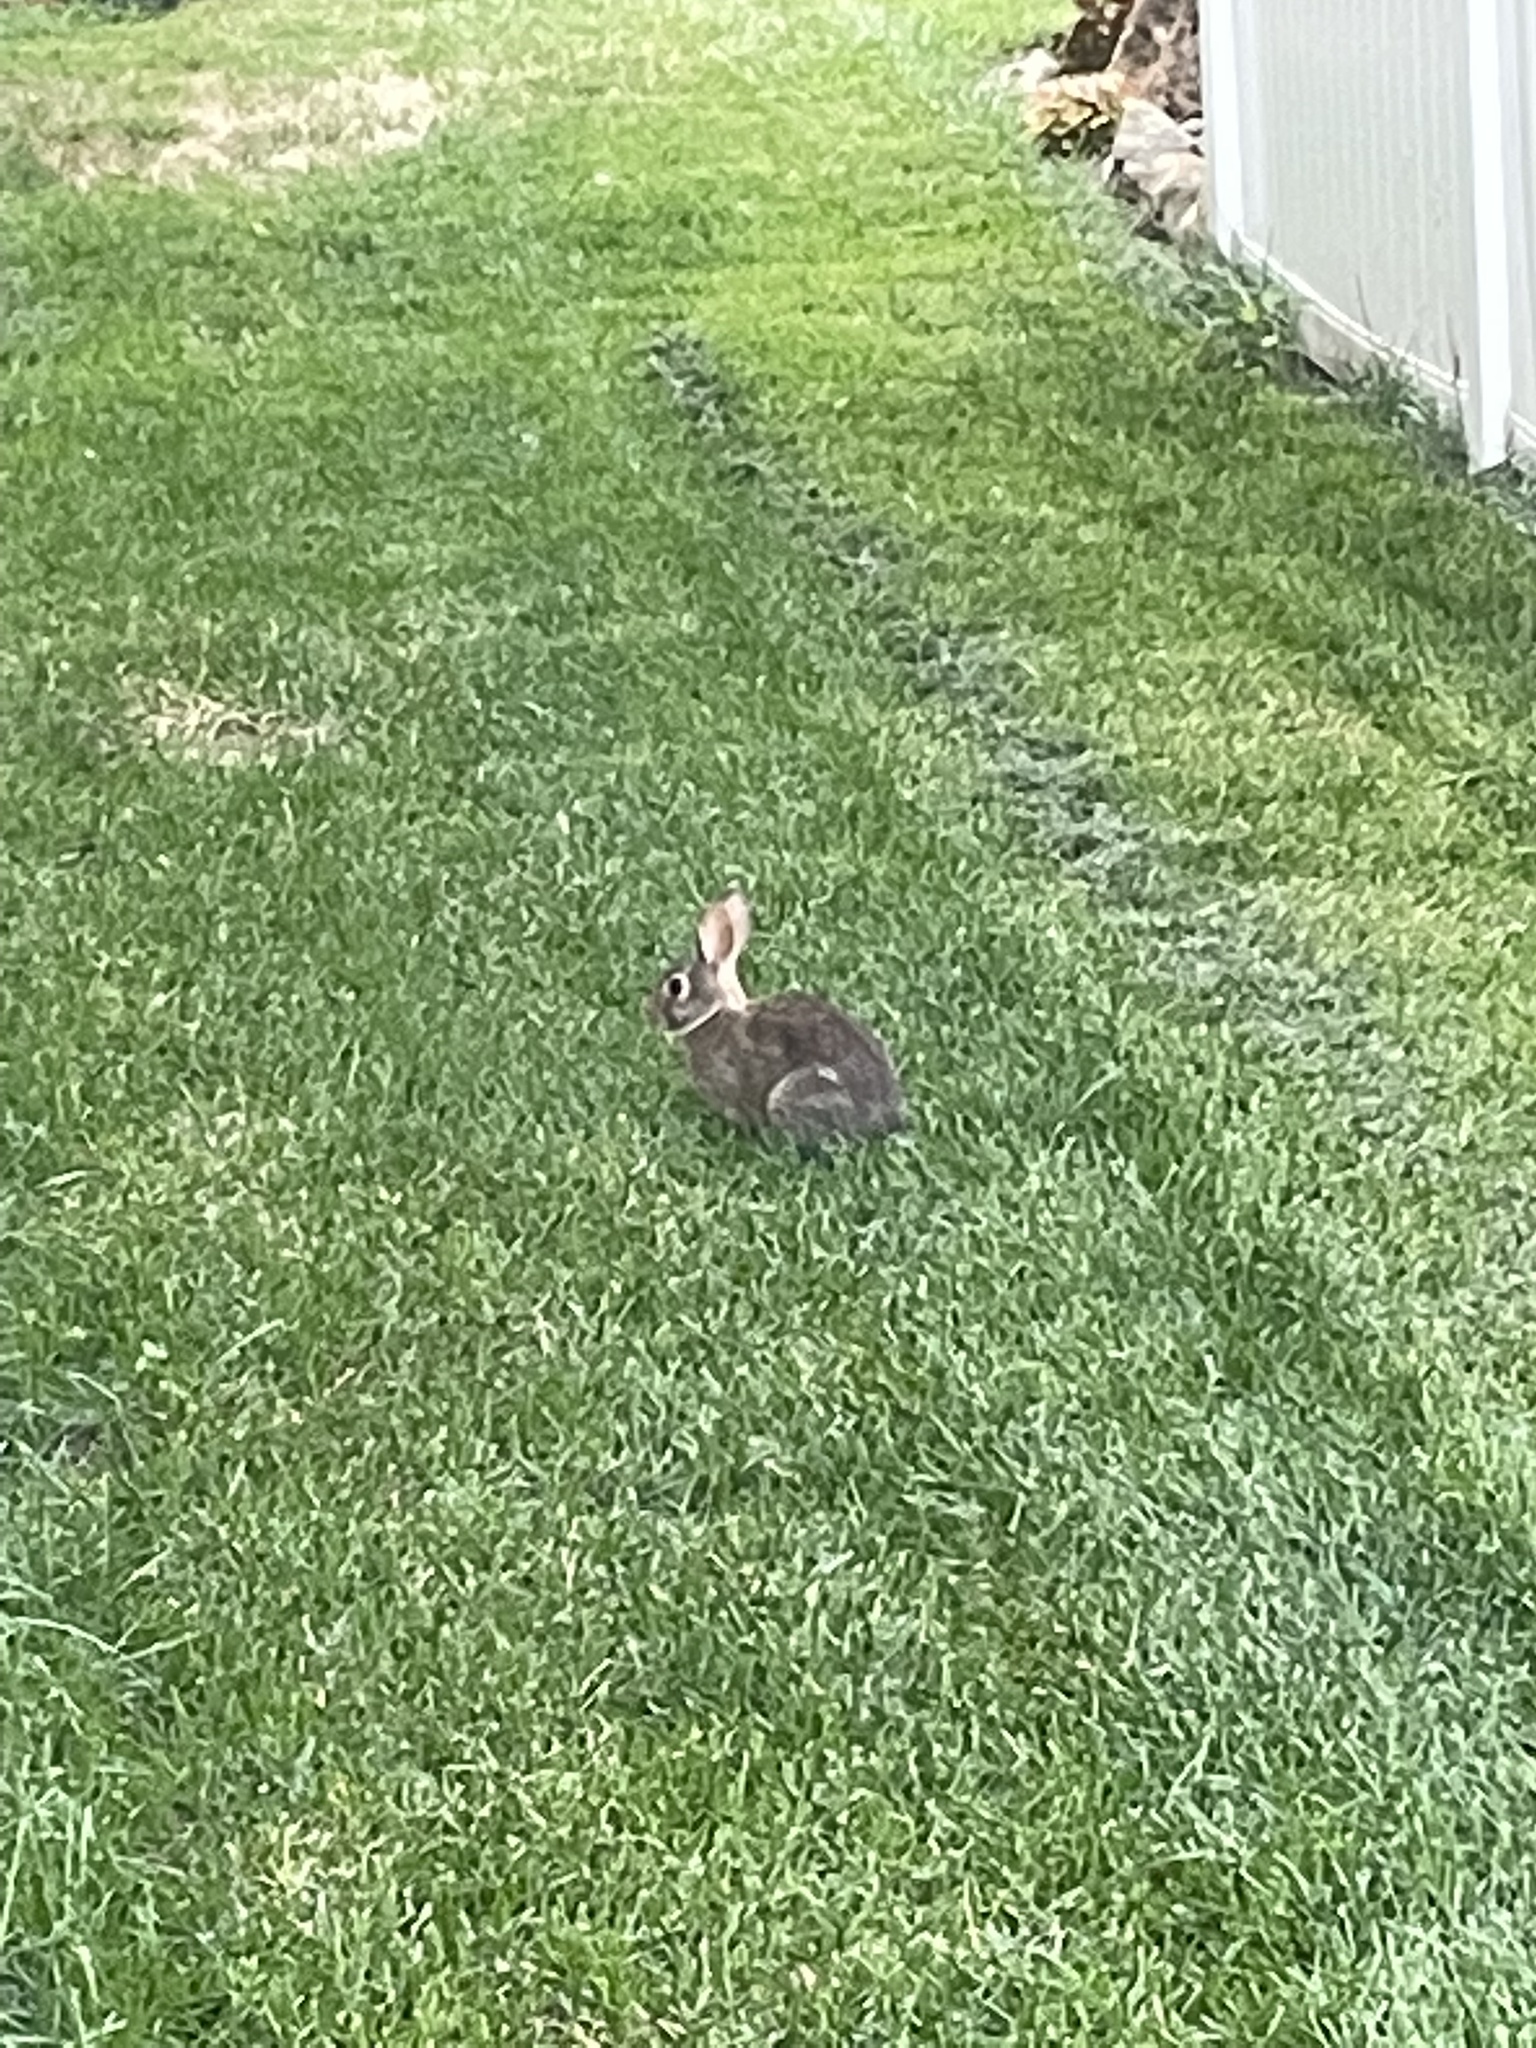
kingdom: Animalia
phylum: Chordata
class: Mammalia
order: Lagomorpha
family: Leporidae
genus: Sylvilagus
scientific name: Sylvilagus floridanus
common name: Eastern cottontail
